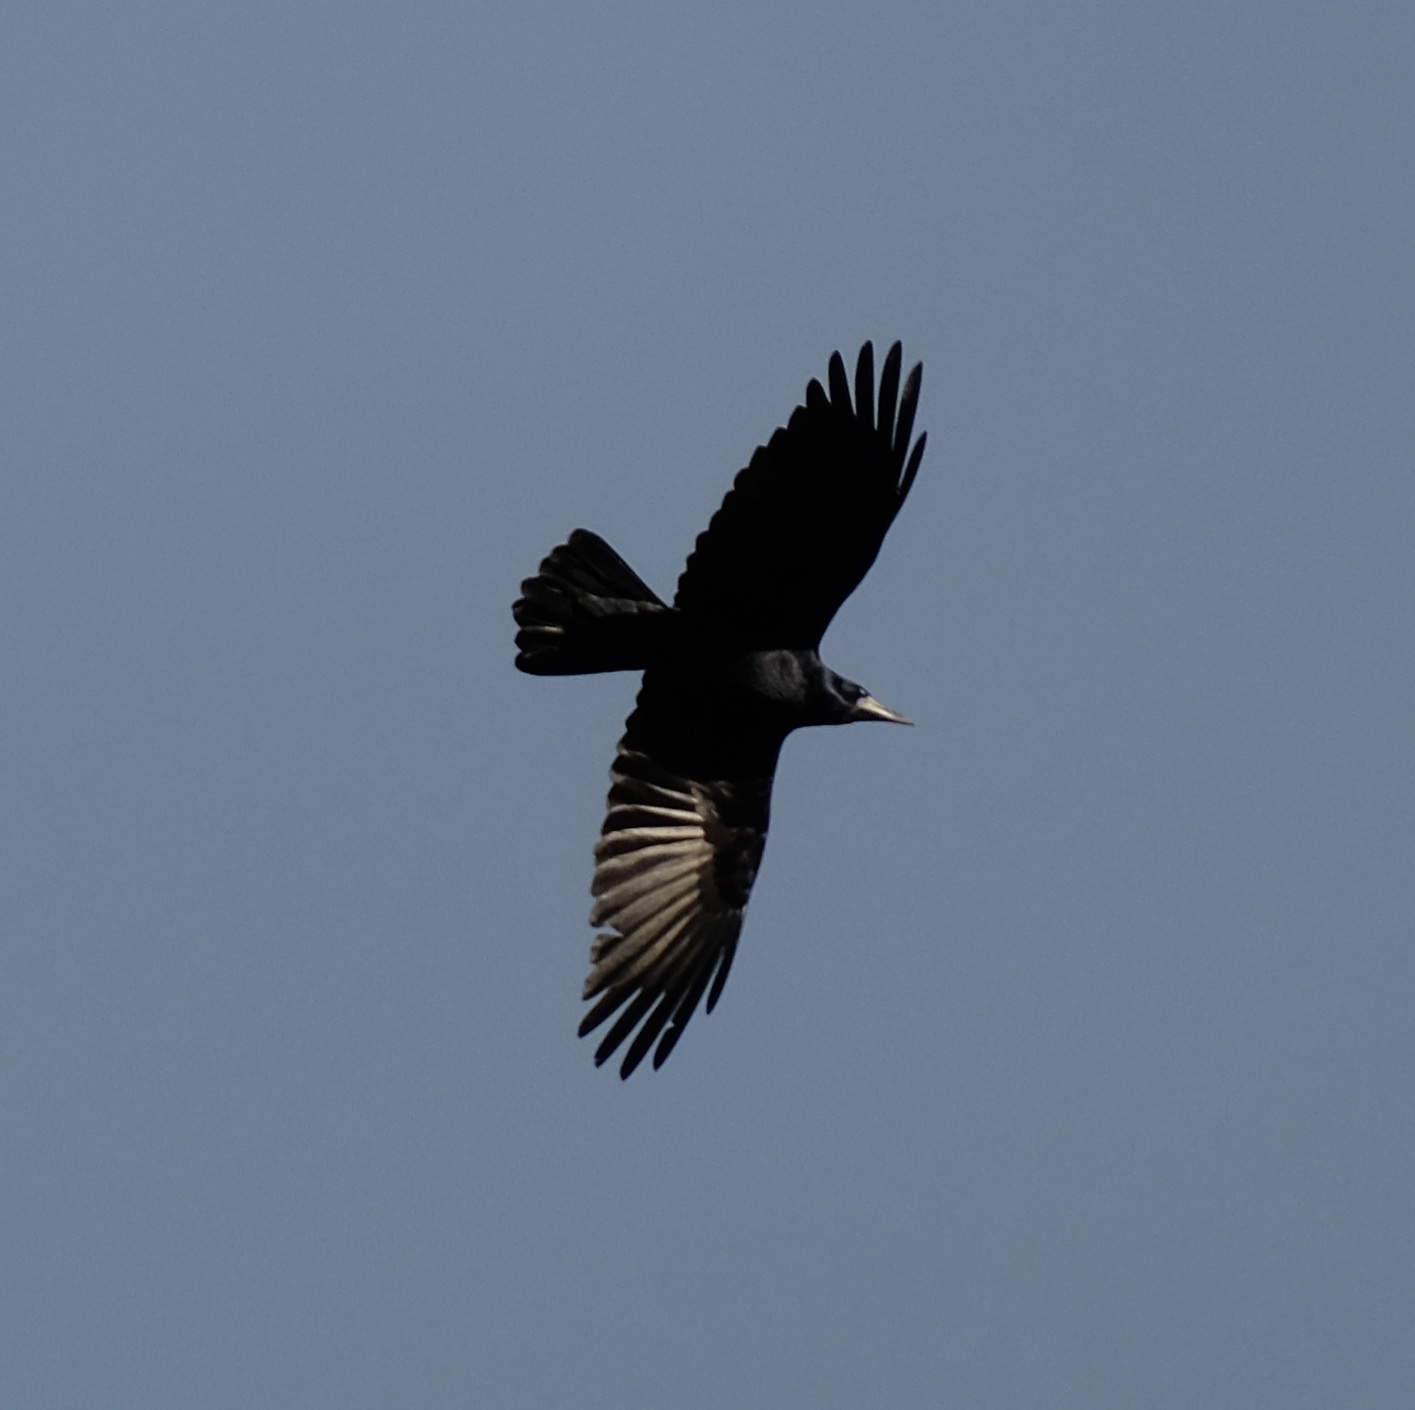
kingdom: Animalia
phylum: Chordata
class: Aves
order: Passeriformes
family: Corvidae
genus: Corvus
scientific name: Corvus frugilegus
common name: Rook
